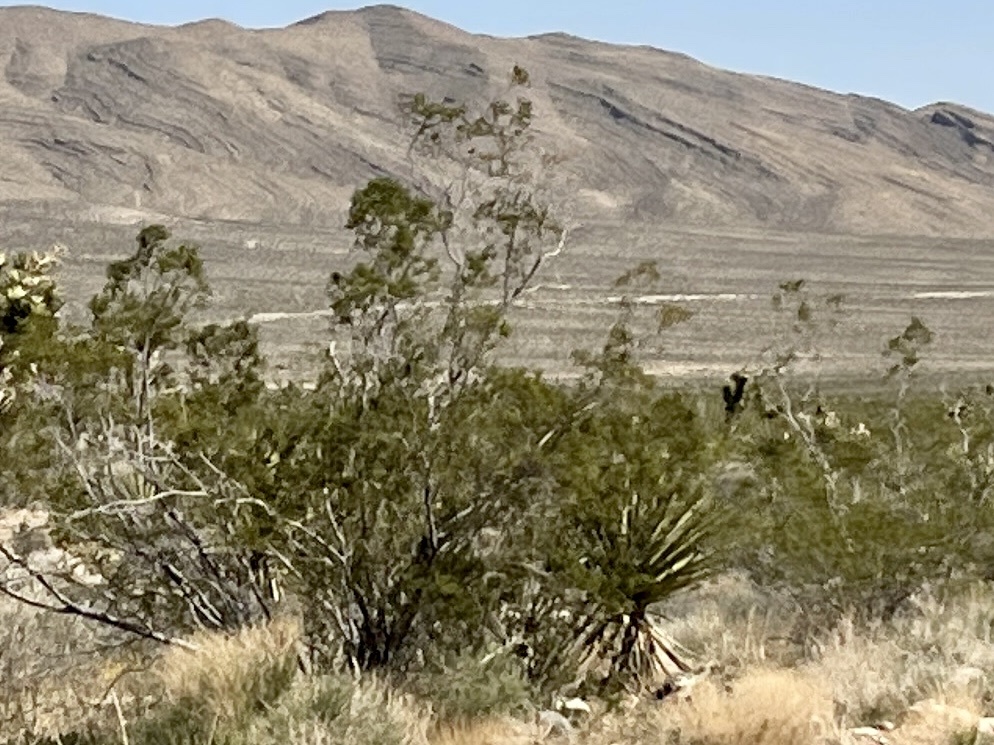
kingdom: Plantae
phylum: Tracheophyta
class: Magnoliopsida
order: Zygophyllales
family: Zygophyllaceae
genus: Larrea
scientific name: Larrea tridentata
